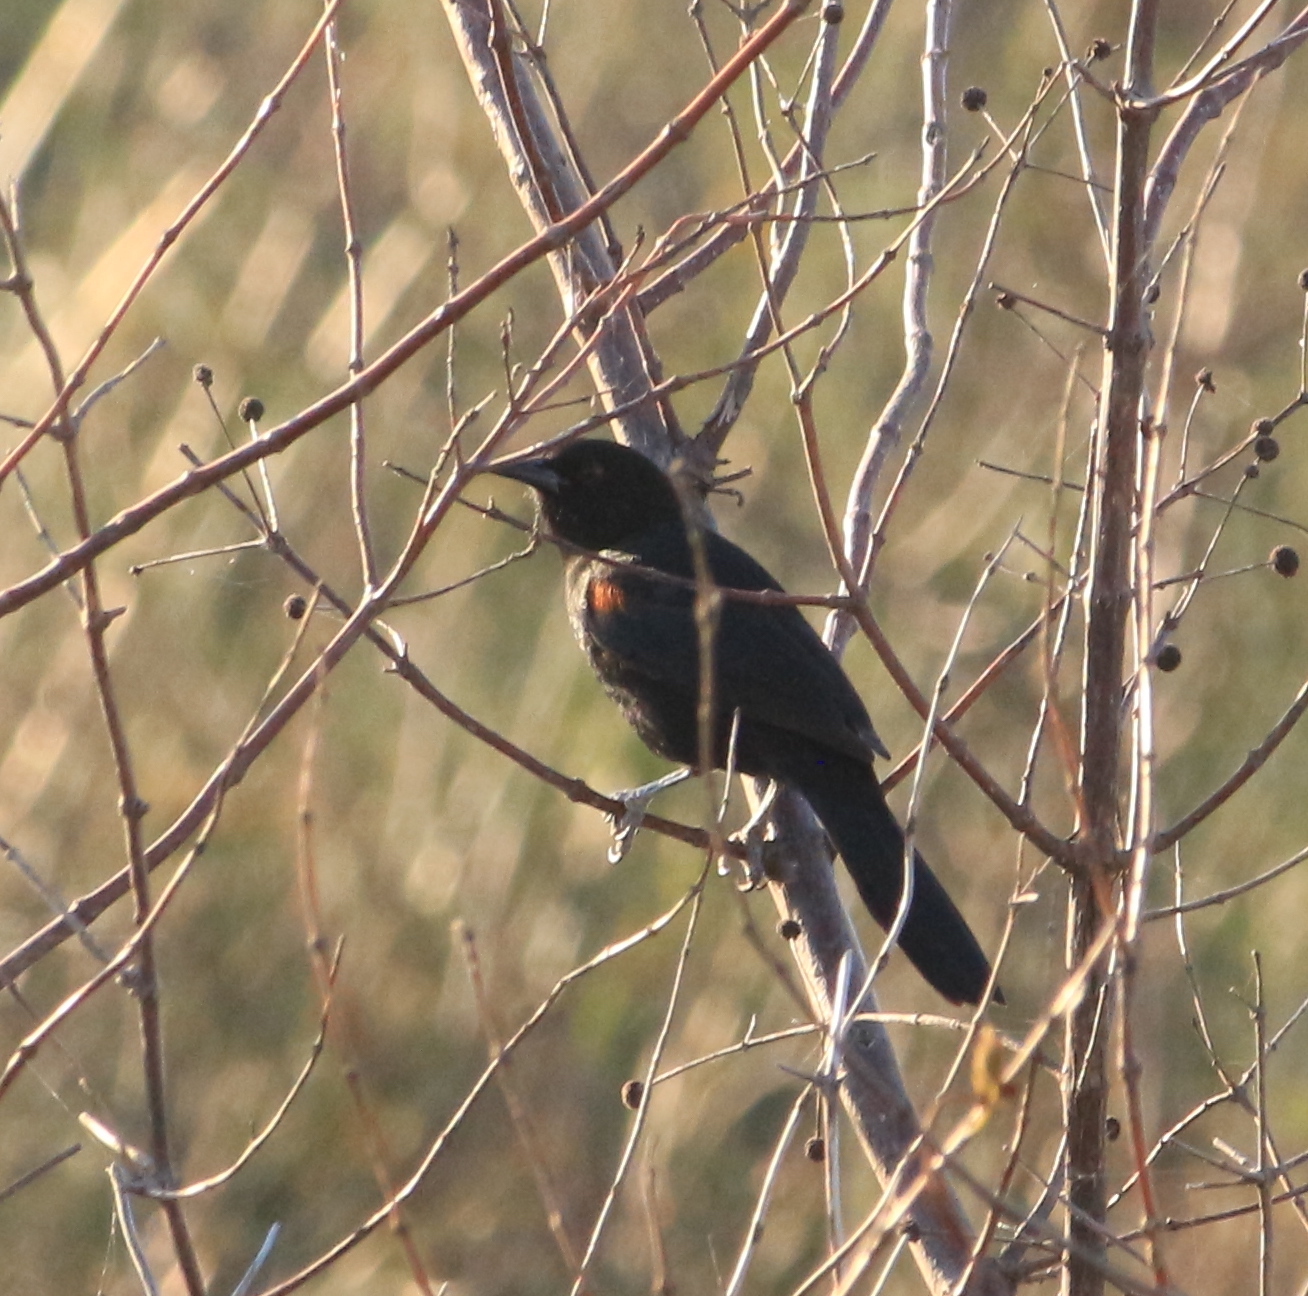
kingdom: Animalia
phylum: Chordata
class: Aves
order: Passeriformes
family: Icteridae
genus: Icterus
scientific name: Icterus cayanensis
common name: Epaulet oriole
